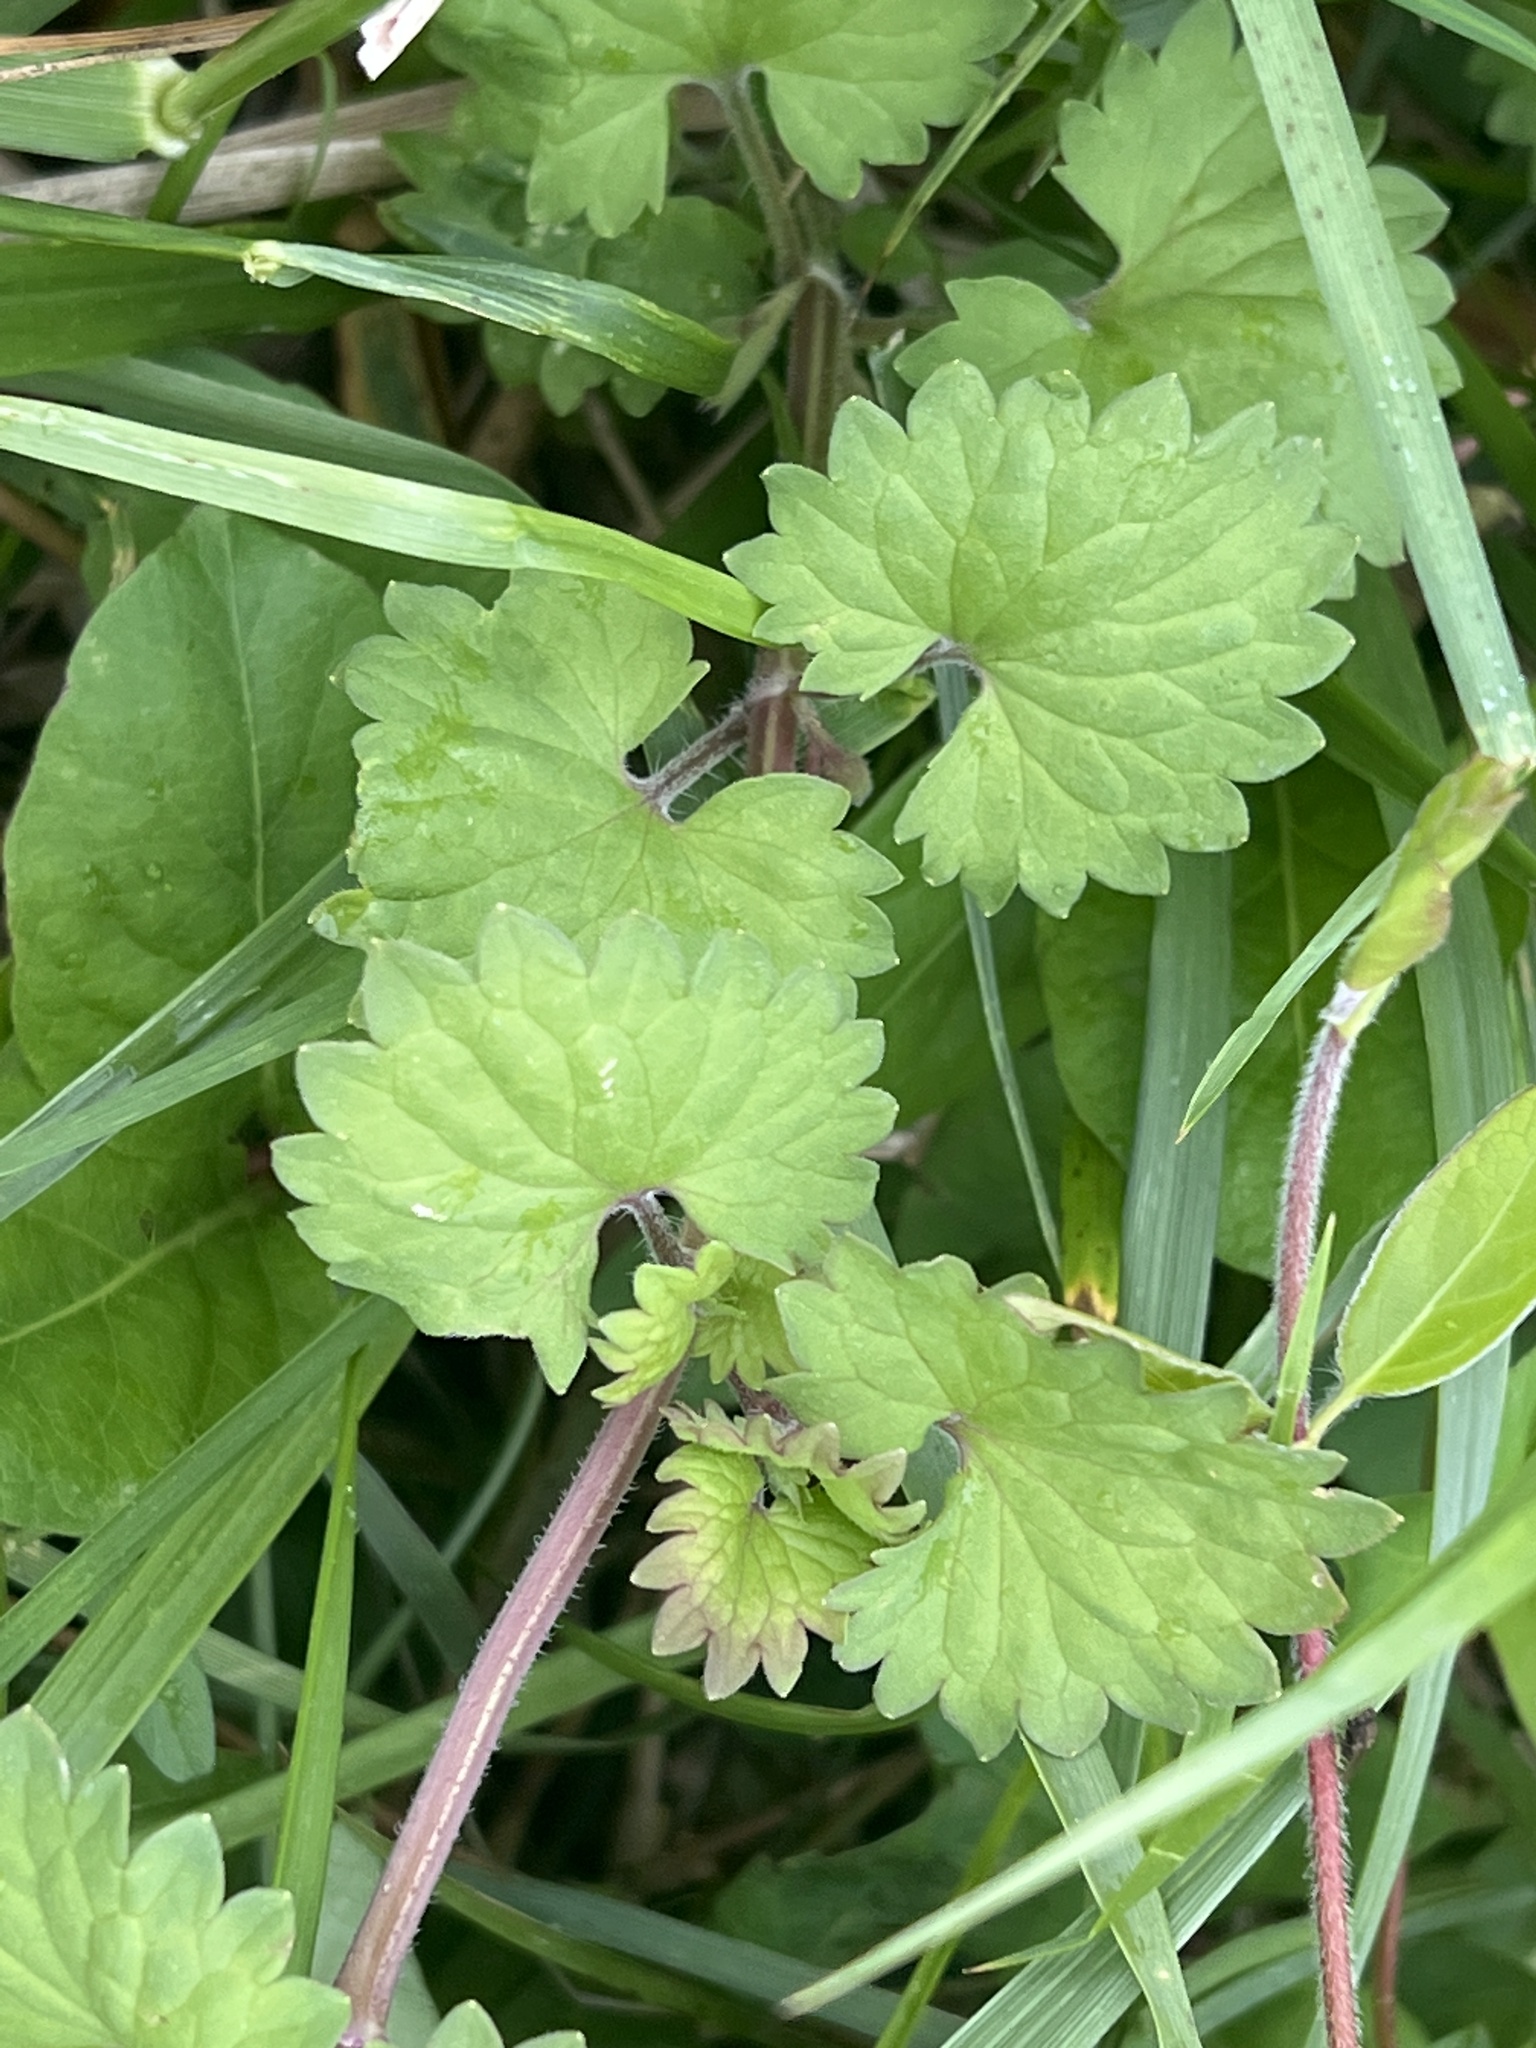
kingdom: Plantae
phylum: Tracheophyta
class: Magnoliopsida
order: Lamiales
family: Lamiaceae
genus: Glechoma
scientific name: Glechoma hederacea
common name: Ground ivy
